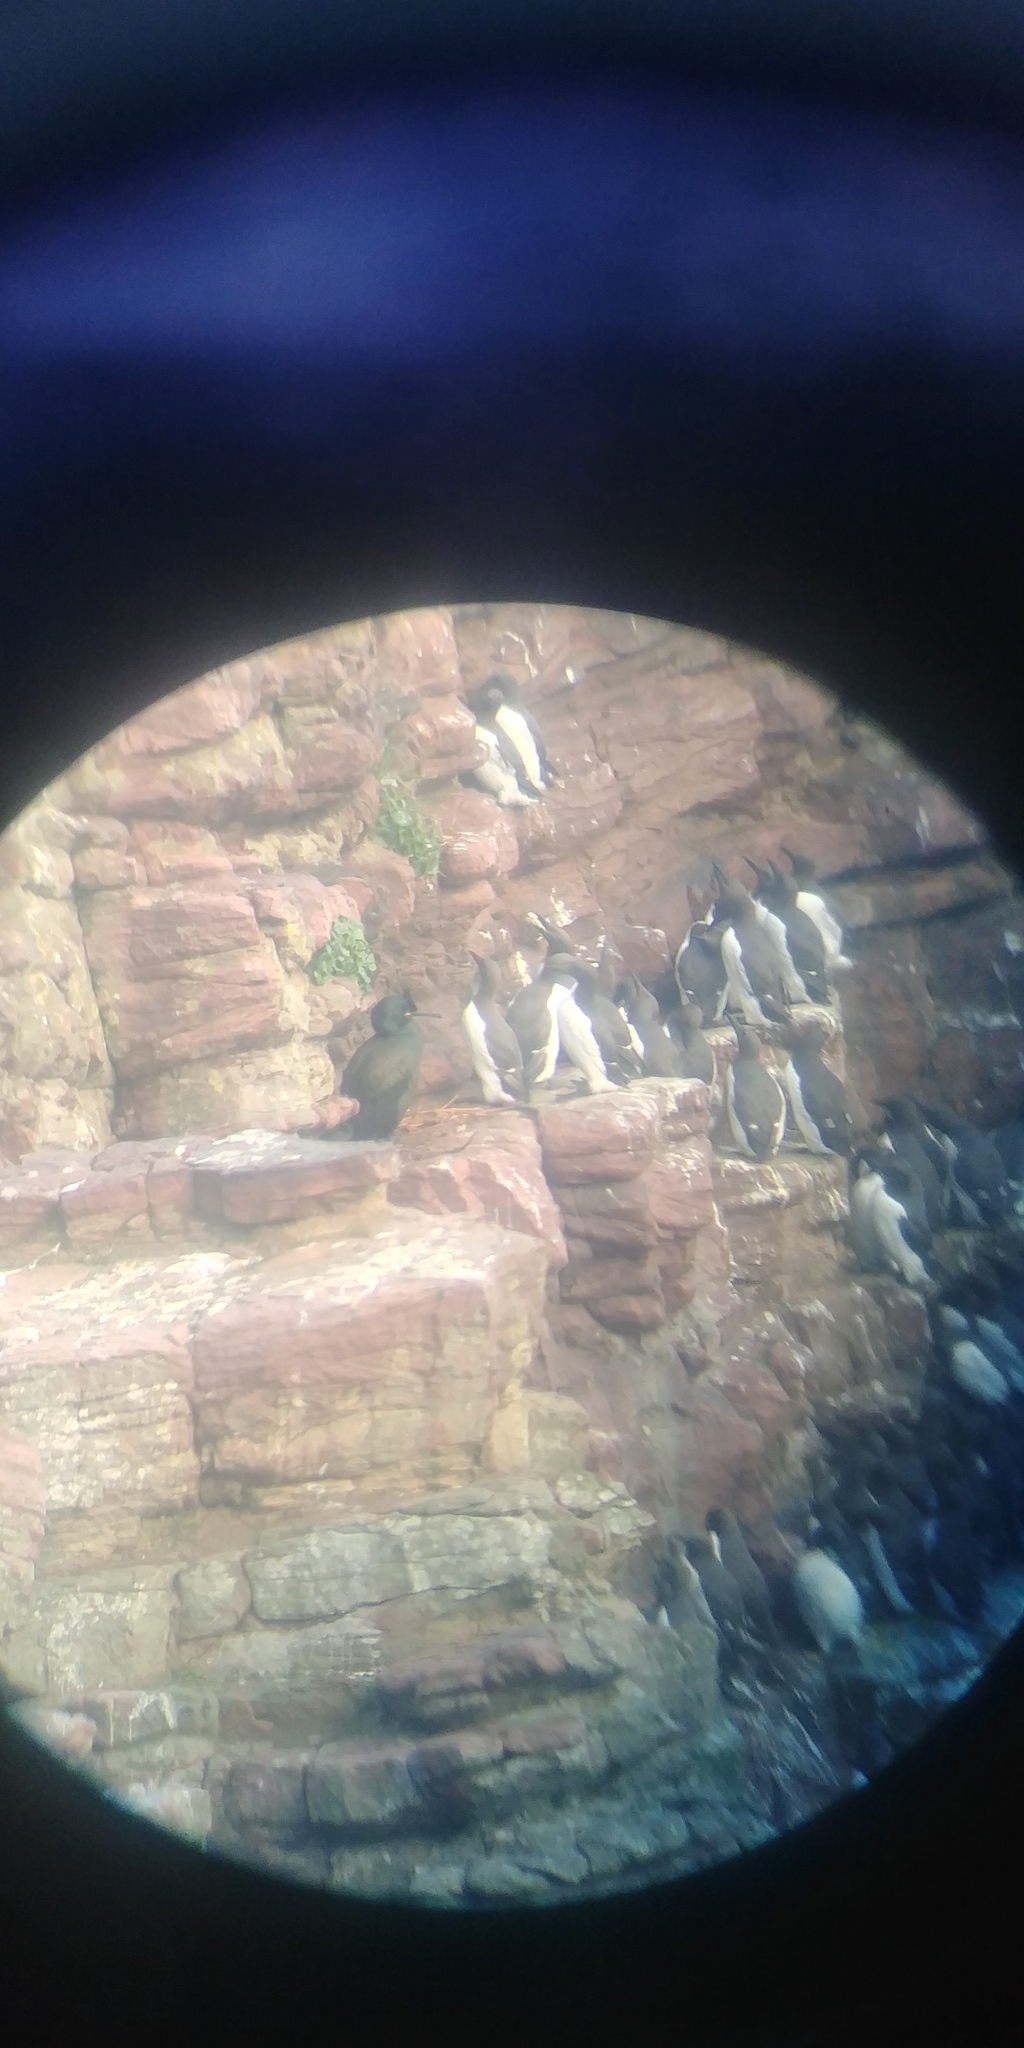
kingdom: Animalia
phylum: Chordata
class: Aves
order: Suliformes
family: Phalacrocoracidae
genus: Phalacrocorax
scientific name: Phalacrocorax aristotelis
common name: European shag
